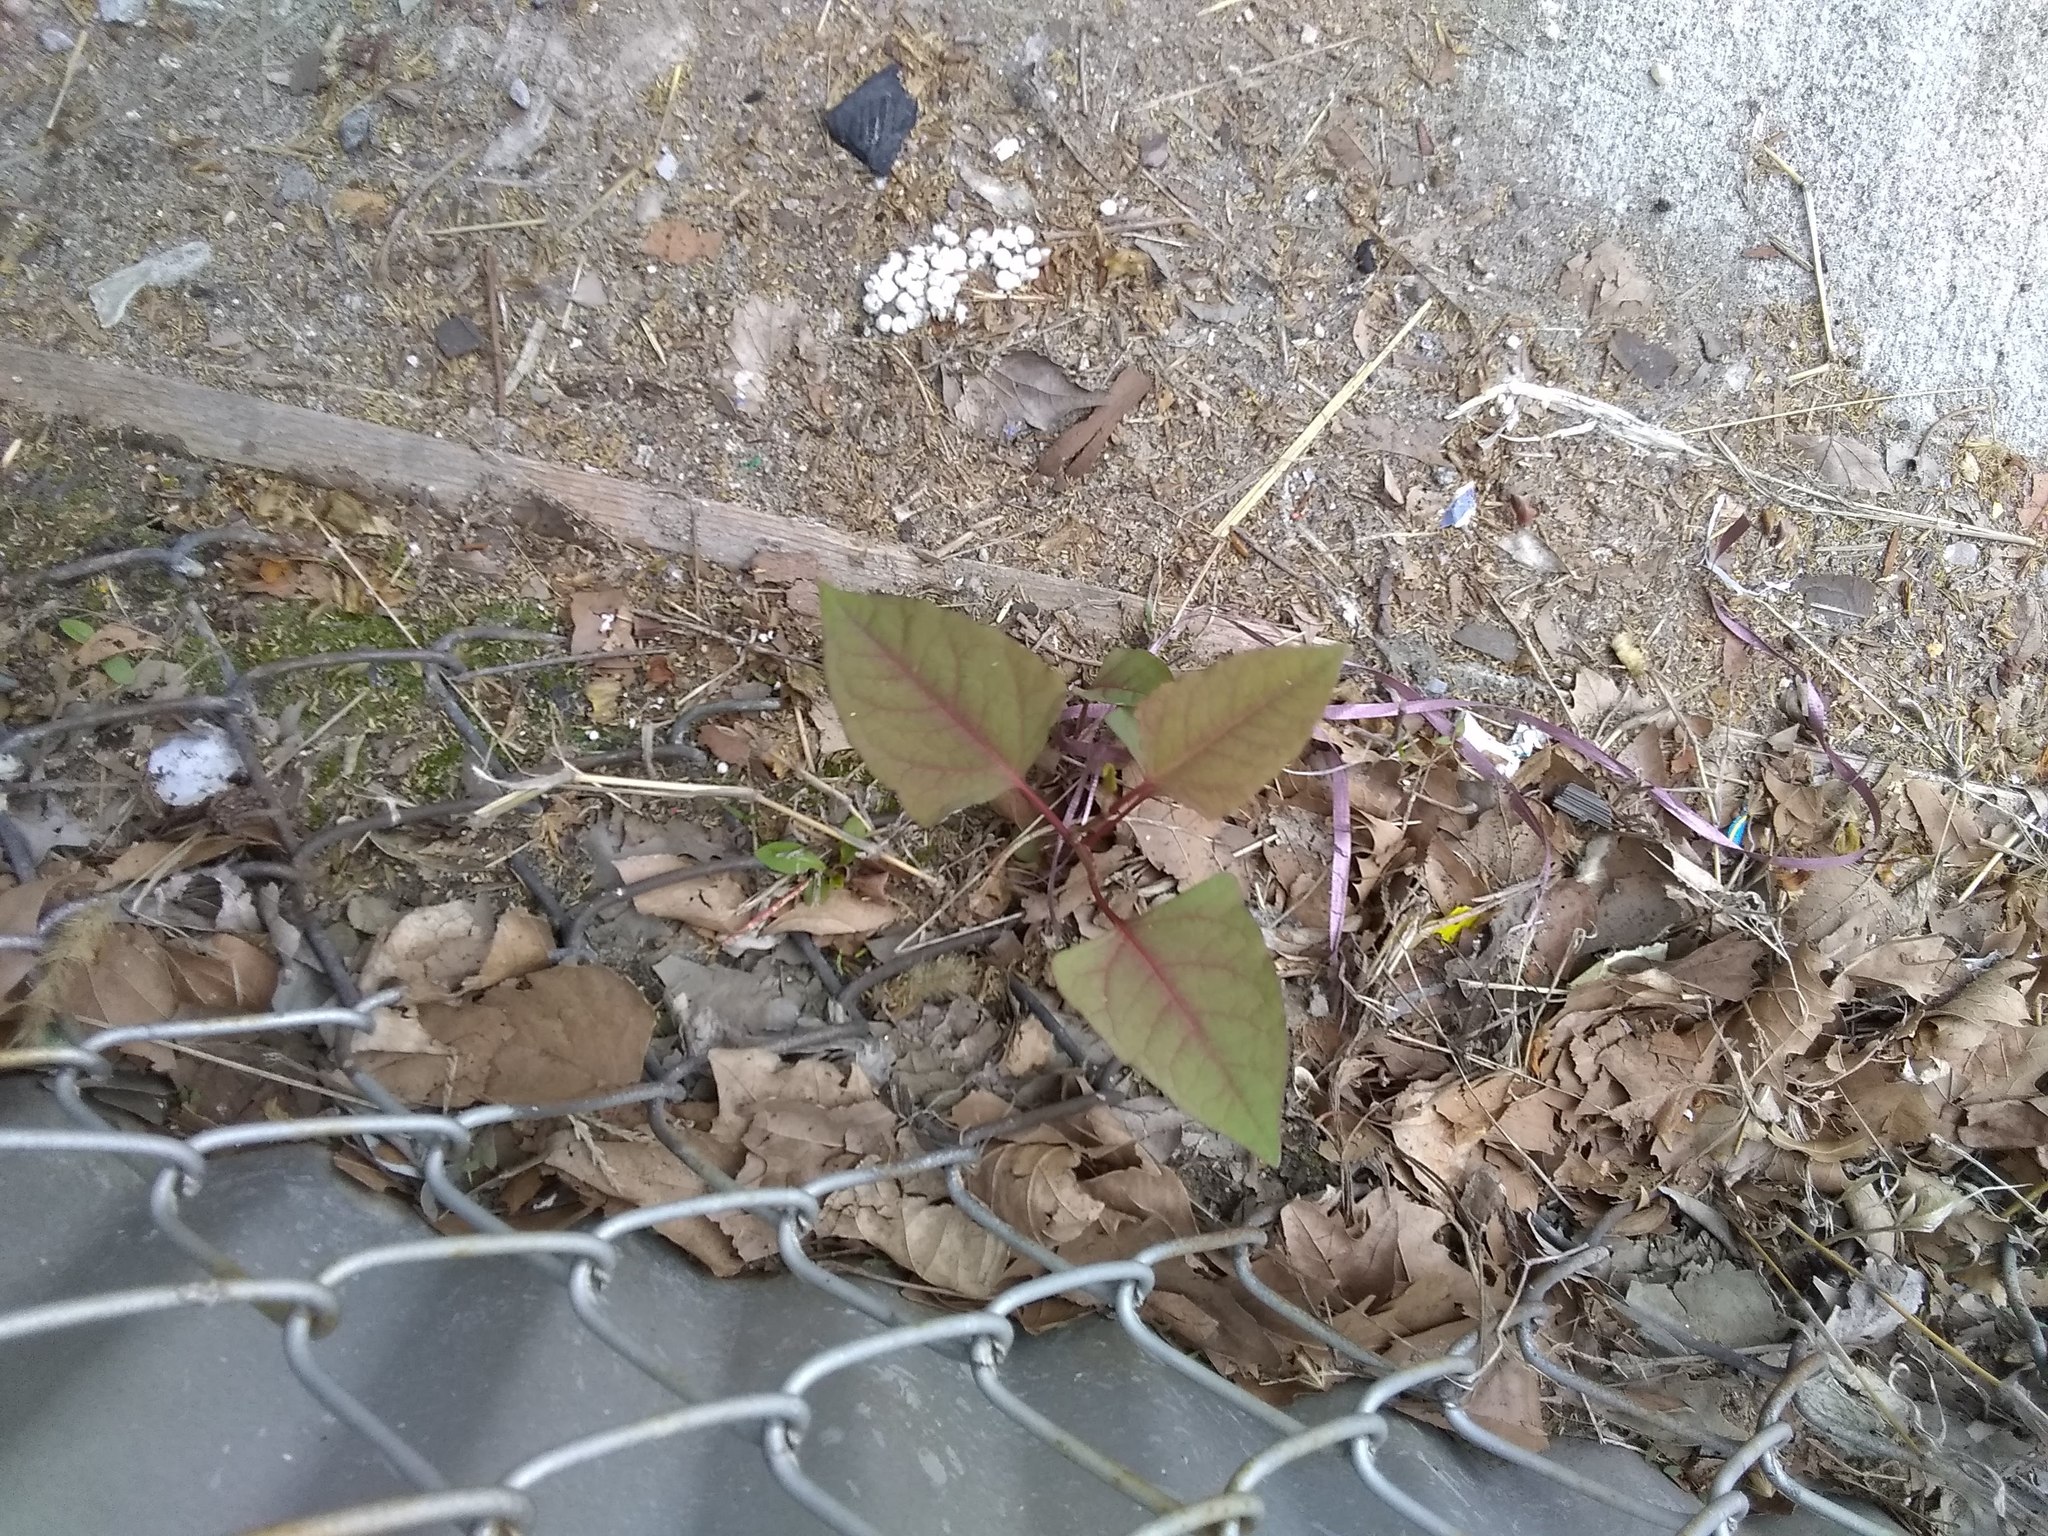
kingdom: Plantae
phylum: Tracheophyta
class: Magnoliopsida
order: Caryophyllales
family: Polygonaceae
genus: Reynoutria
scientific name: Reynoutria japonica
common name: Japanese knotweed
